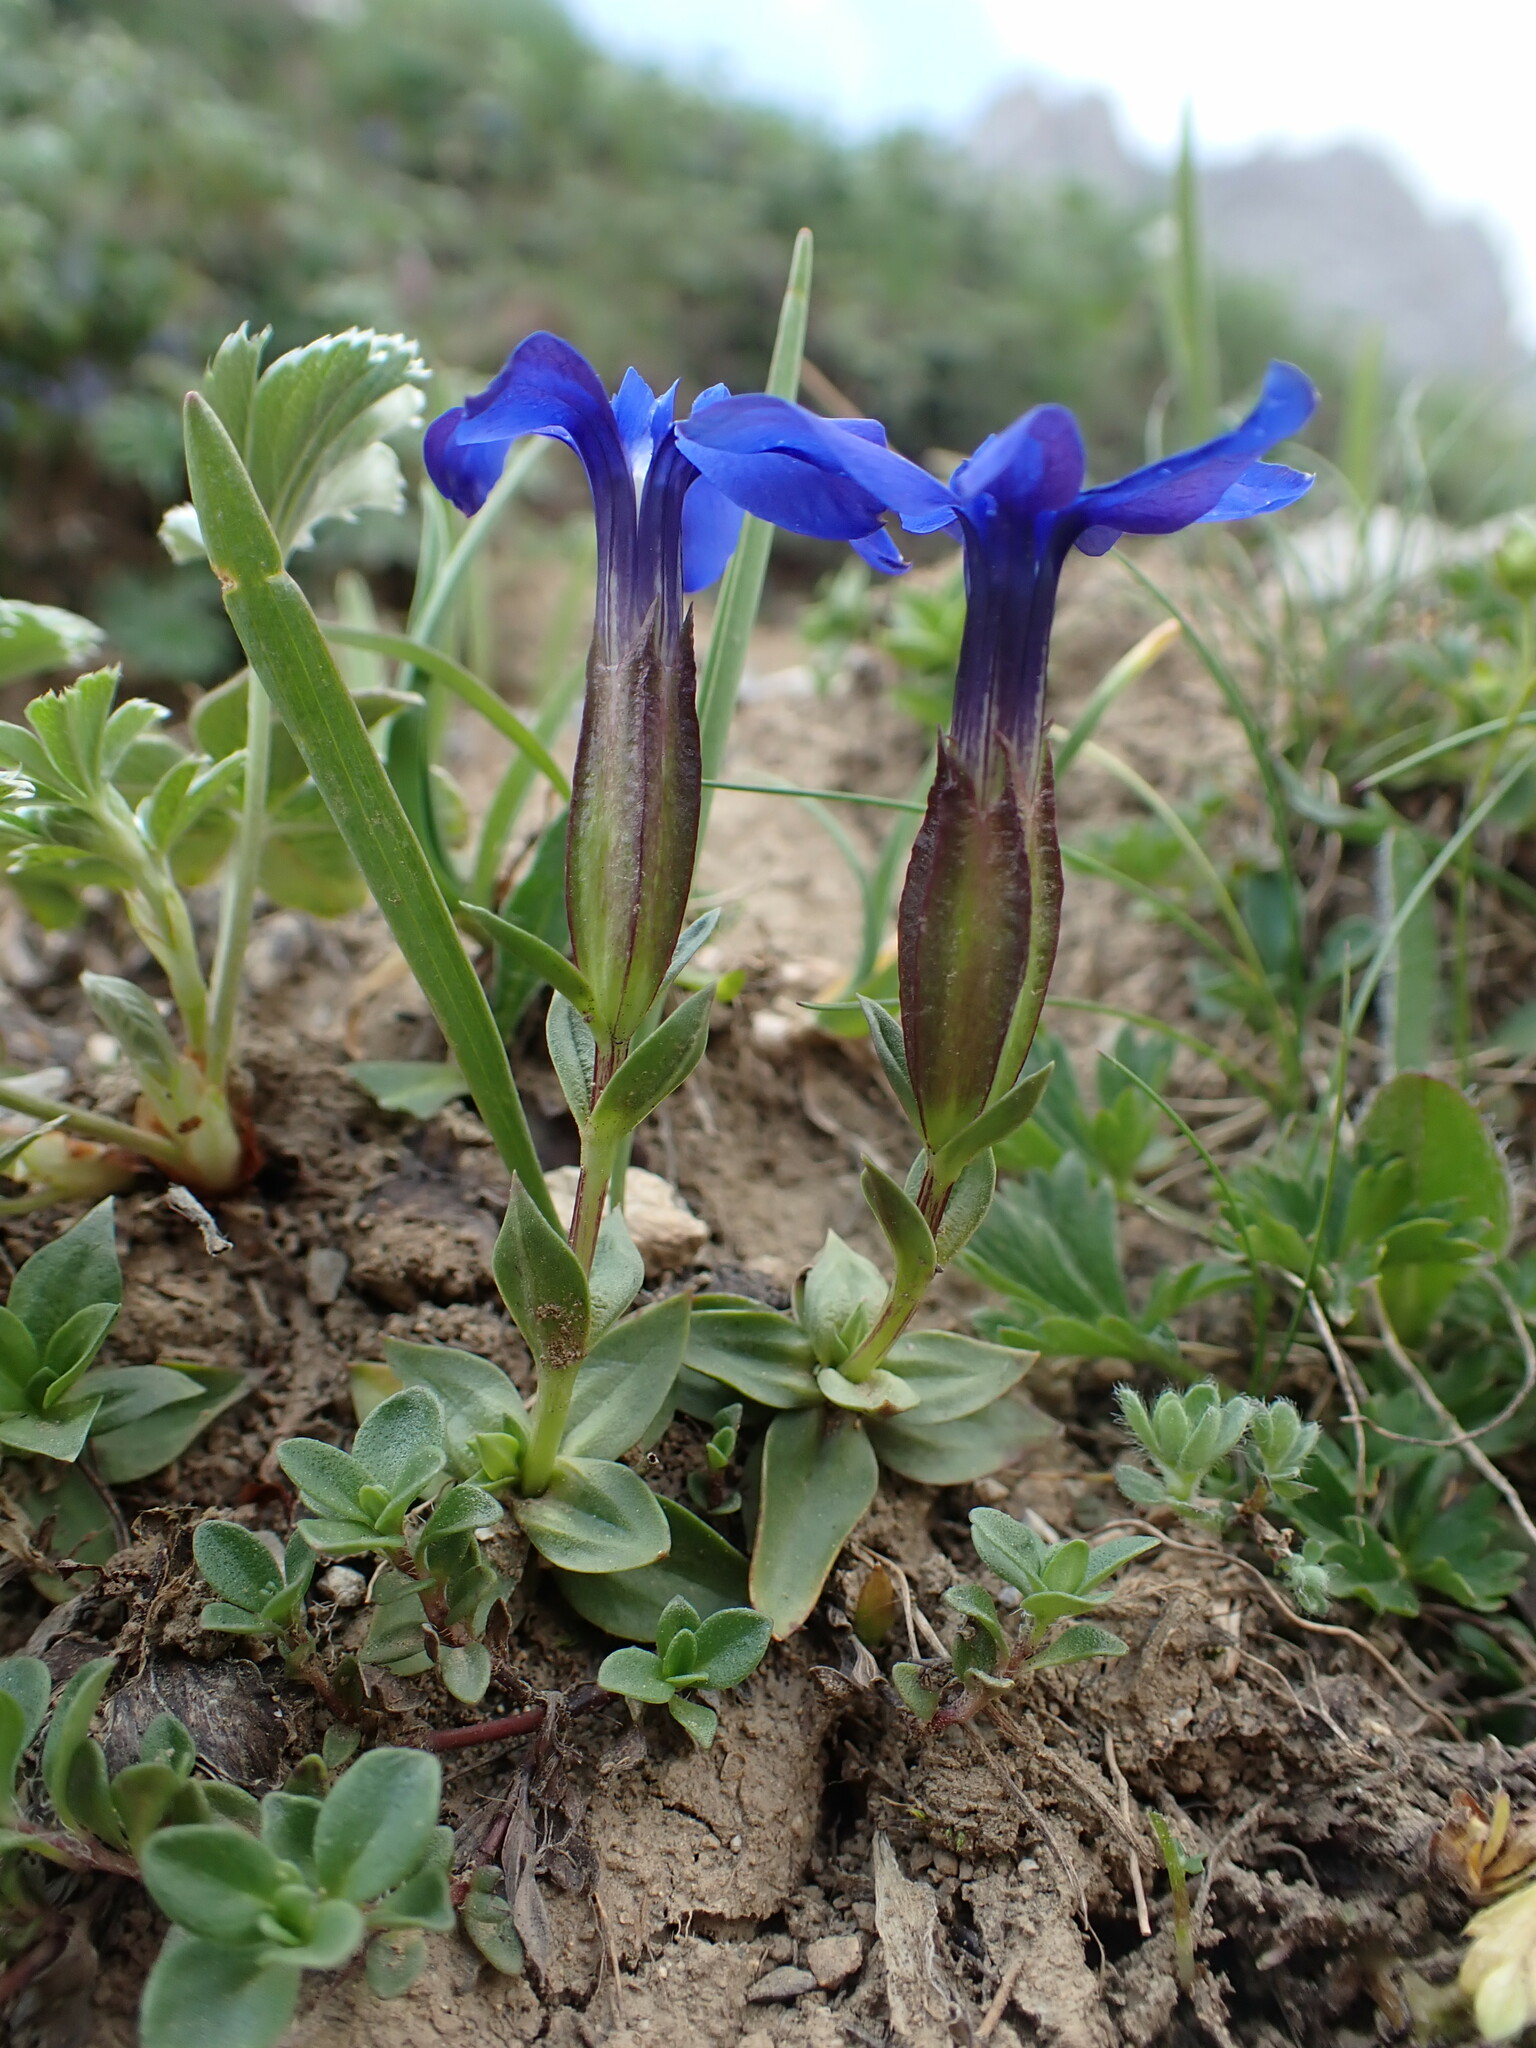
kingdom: Plantae
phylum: Tracheophyta
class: Magnoliopsida
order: Gentianales
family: Gentianaceae
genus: Gentiana
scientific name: Gentiana verna
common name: Spring gentian
